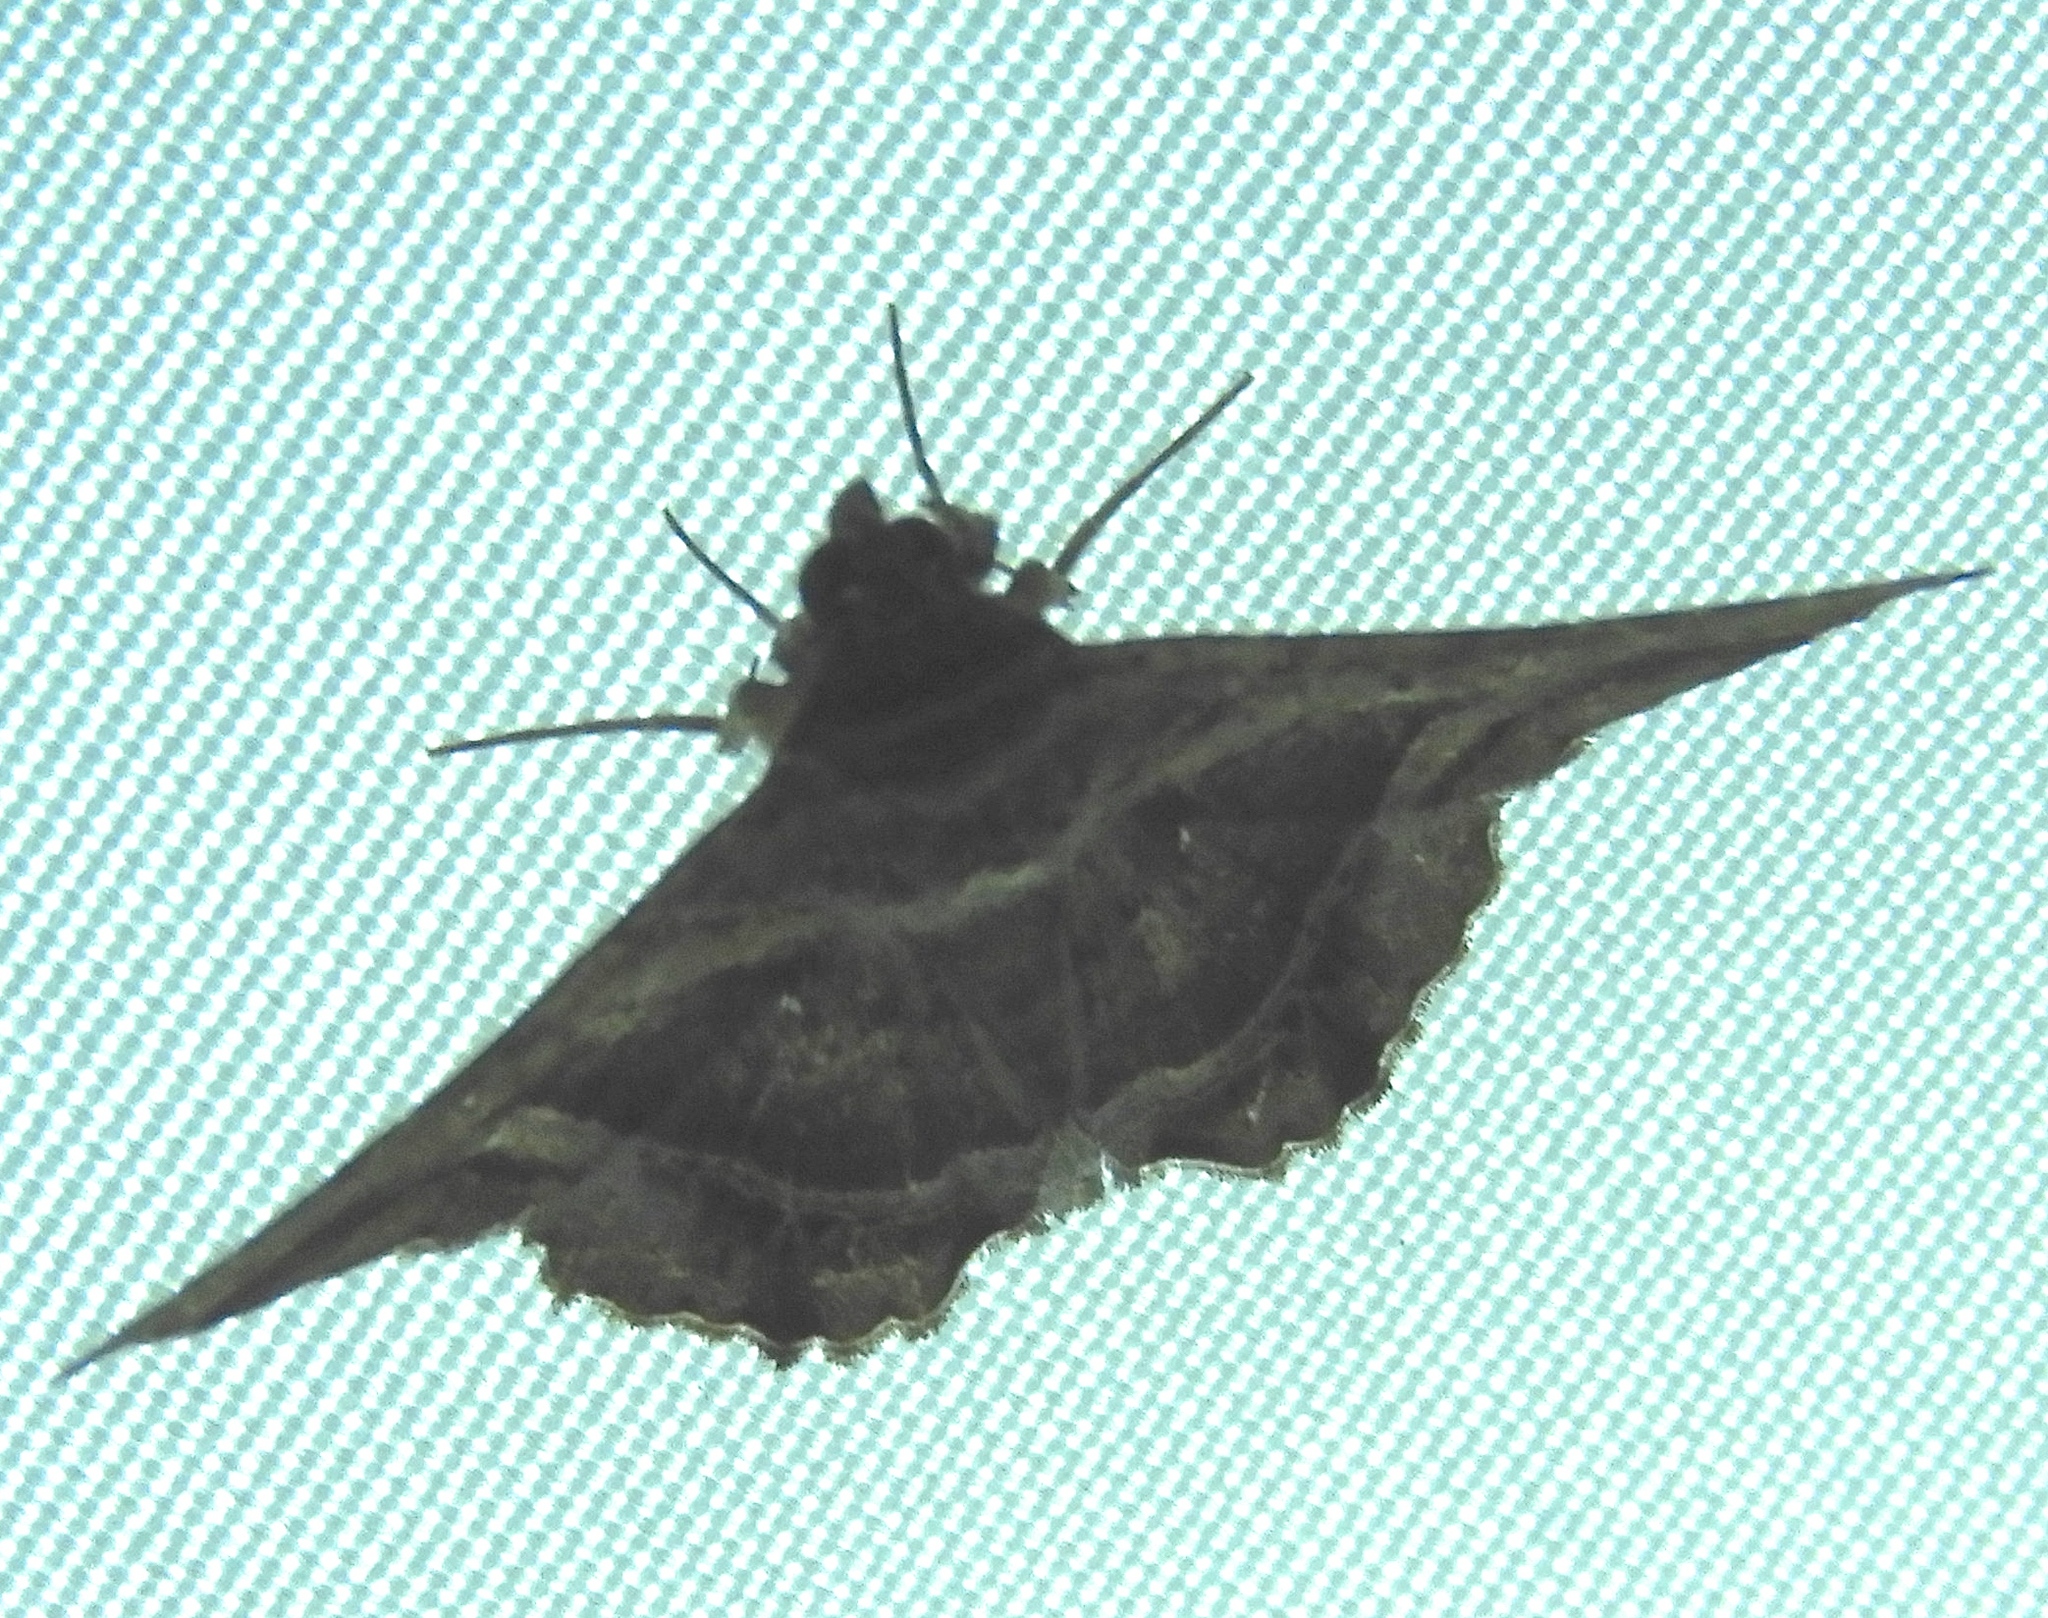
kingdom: Animalia
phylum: Arthropoda
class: Insecta
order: Lepidoptera
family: Erebidae
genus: Helia
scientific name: Helia
